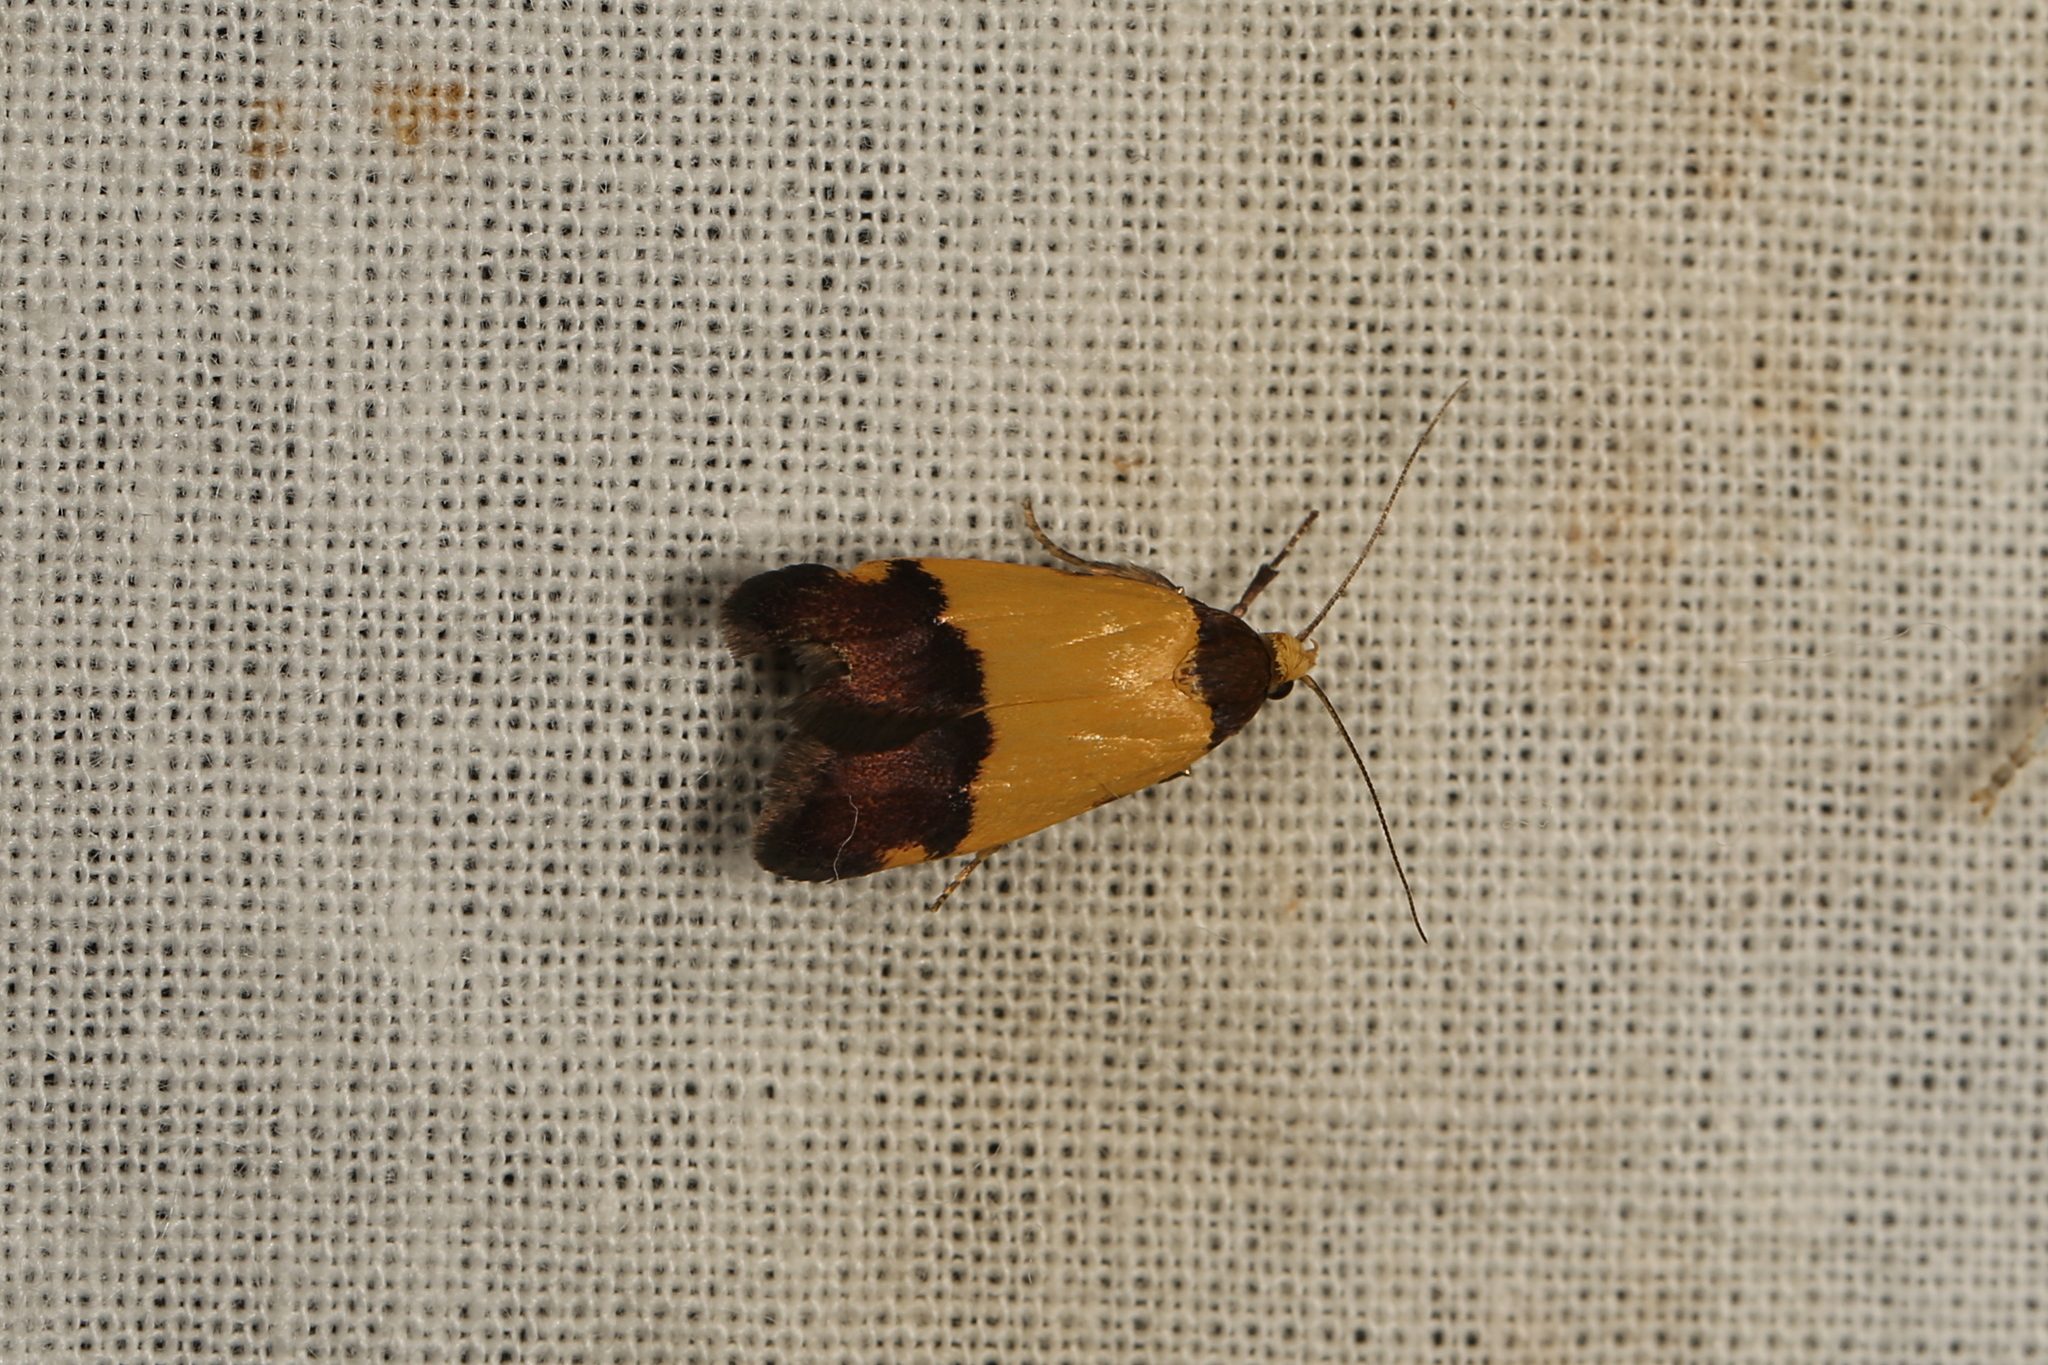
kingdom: Animalia
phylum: Arthropoda
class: Insecta
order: Lepidoptera
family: Oecophoridae
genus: Heteroteucha
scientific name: Heteroteucha kershawi
